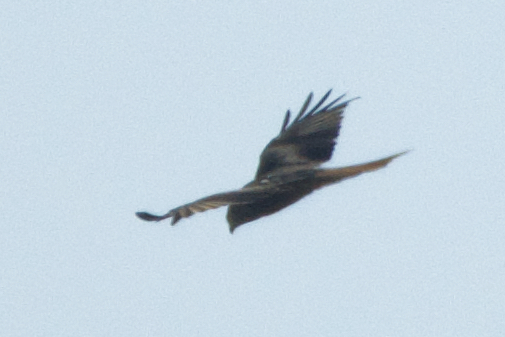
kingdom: Animalia
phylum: Chordata
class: Aves
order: Accipitriformes
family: Accipitridae
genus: Milvus
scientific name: Milvus milvus
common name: Red kite
